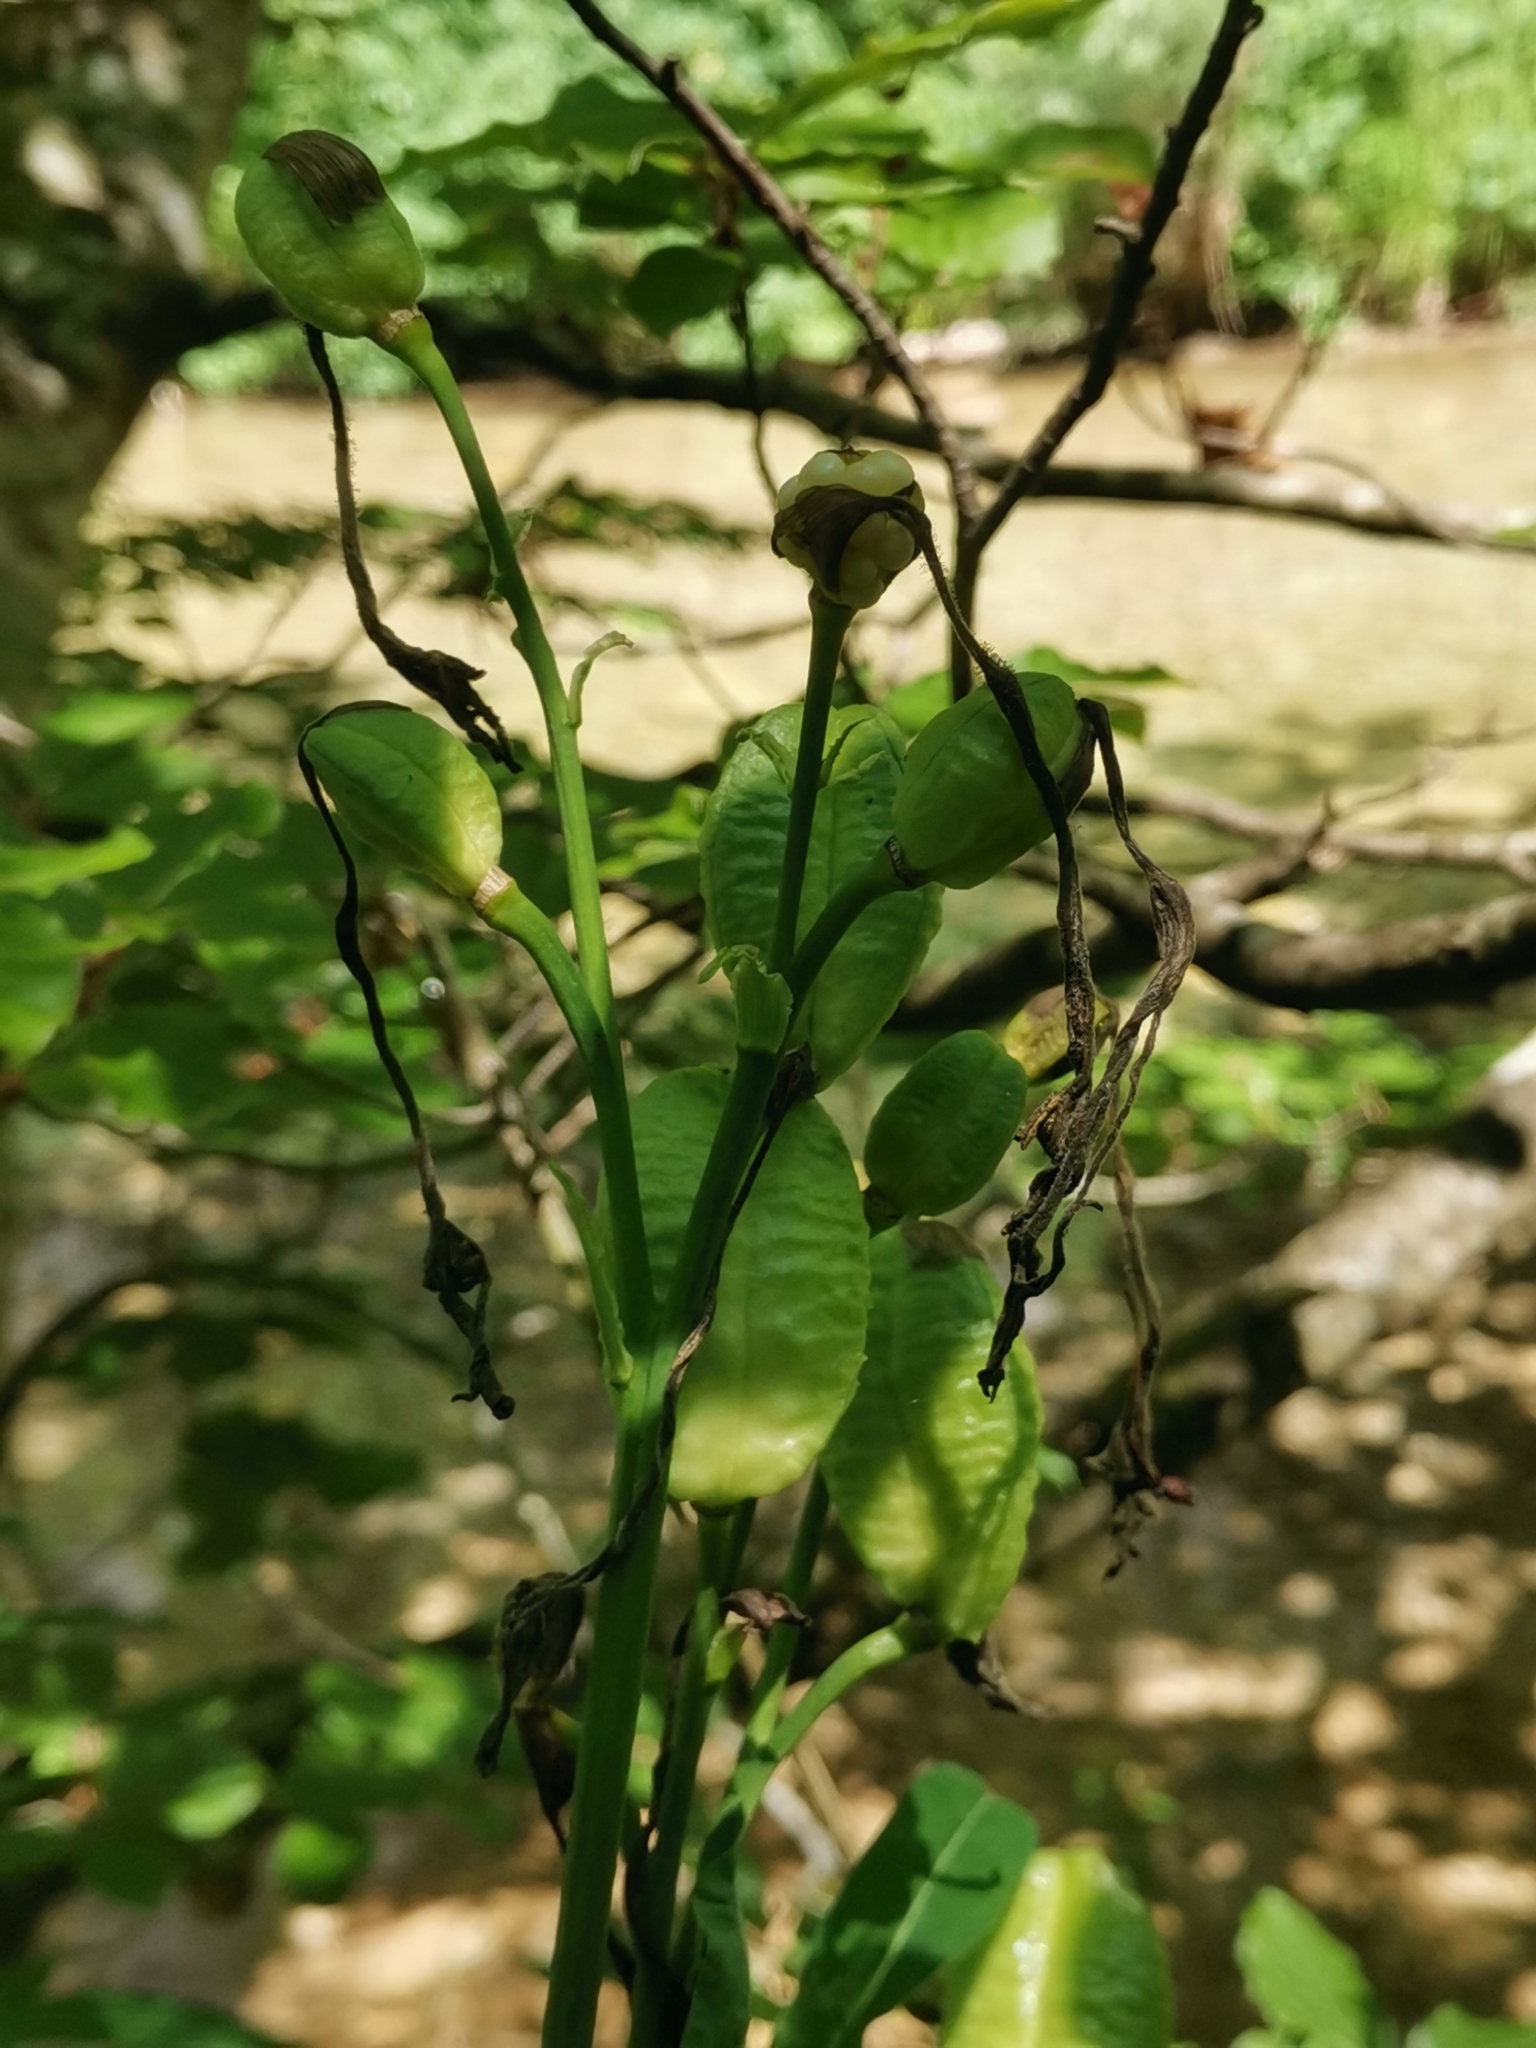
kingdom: Plantae
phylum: Tracheophyta
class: Liliopsida
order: Asparagales
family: Asphodelaceae
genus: Hemerocallis
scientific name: Hemerocallis lilioasphodelus
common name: Yellow day-lily
